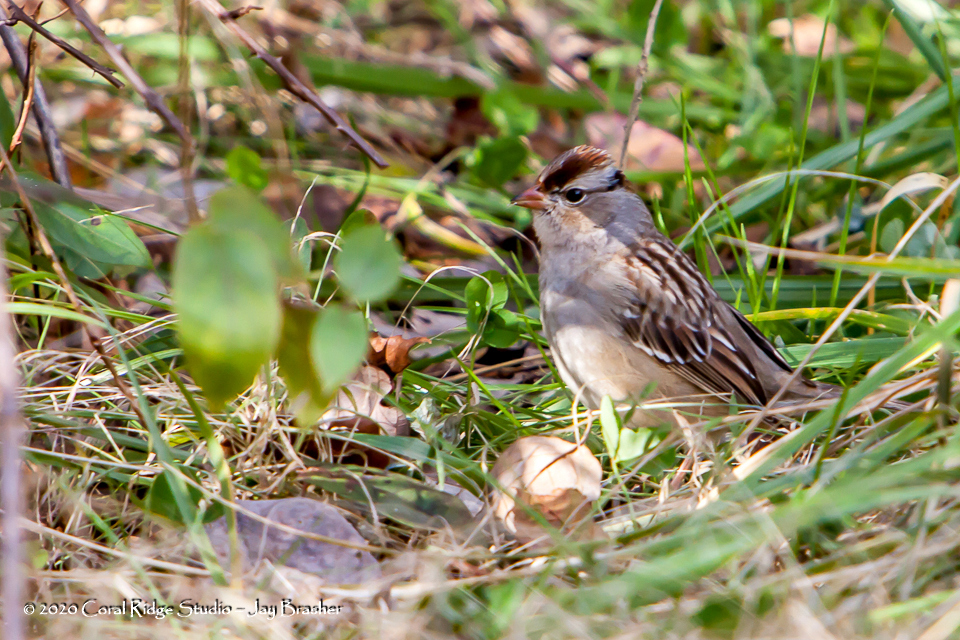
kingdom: Animalia
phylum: Chordata
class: Aves
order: Passeriformes
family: Passerellidae
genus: Zonotrichia
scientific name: Zonotrichia leucophrys
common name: White-crowned sparrow
